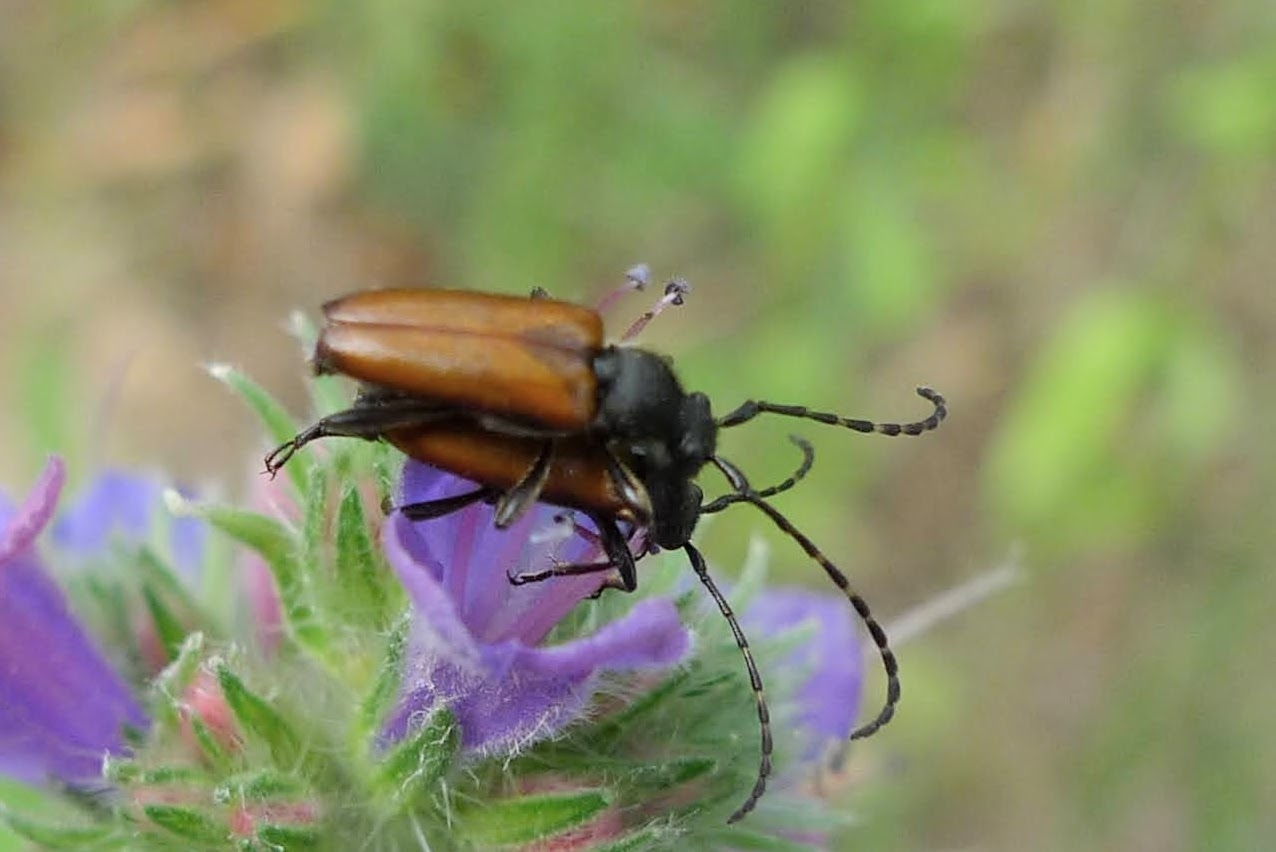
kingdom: Animalia
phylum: Arthropoda
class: Insecta
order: Coleoptera
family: Cerambycidae
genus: Paracorymbia
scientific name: Paracorymbia maculicornis
